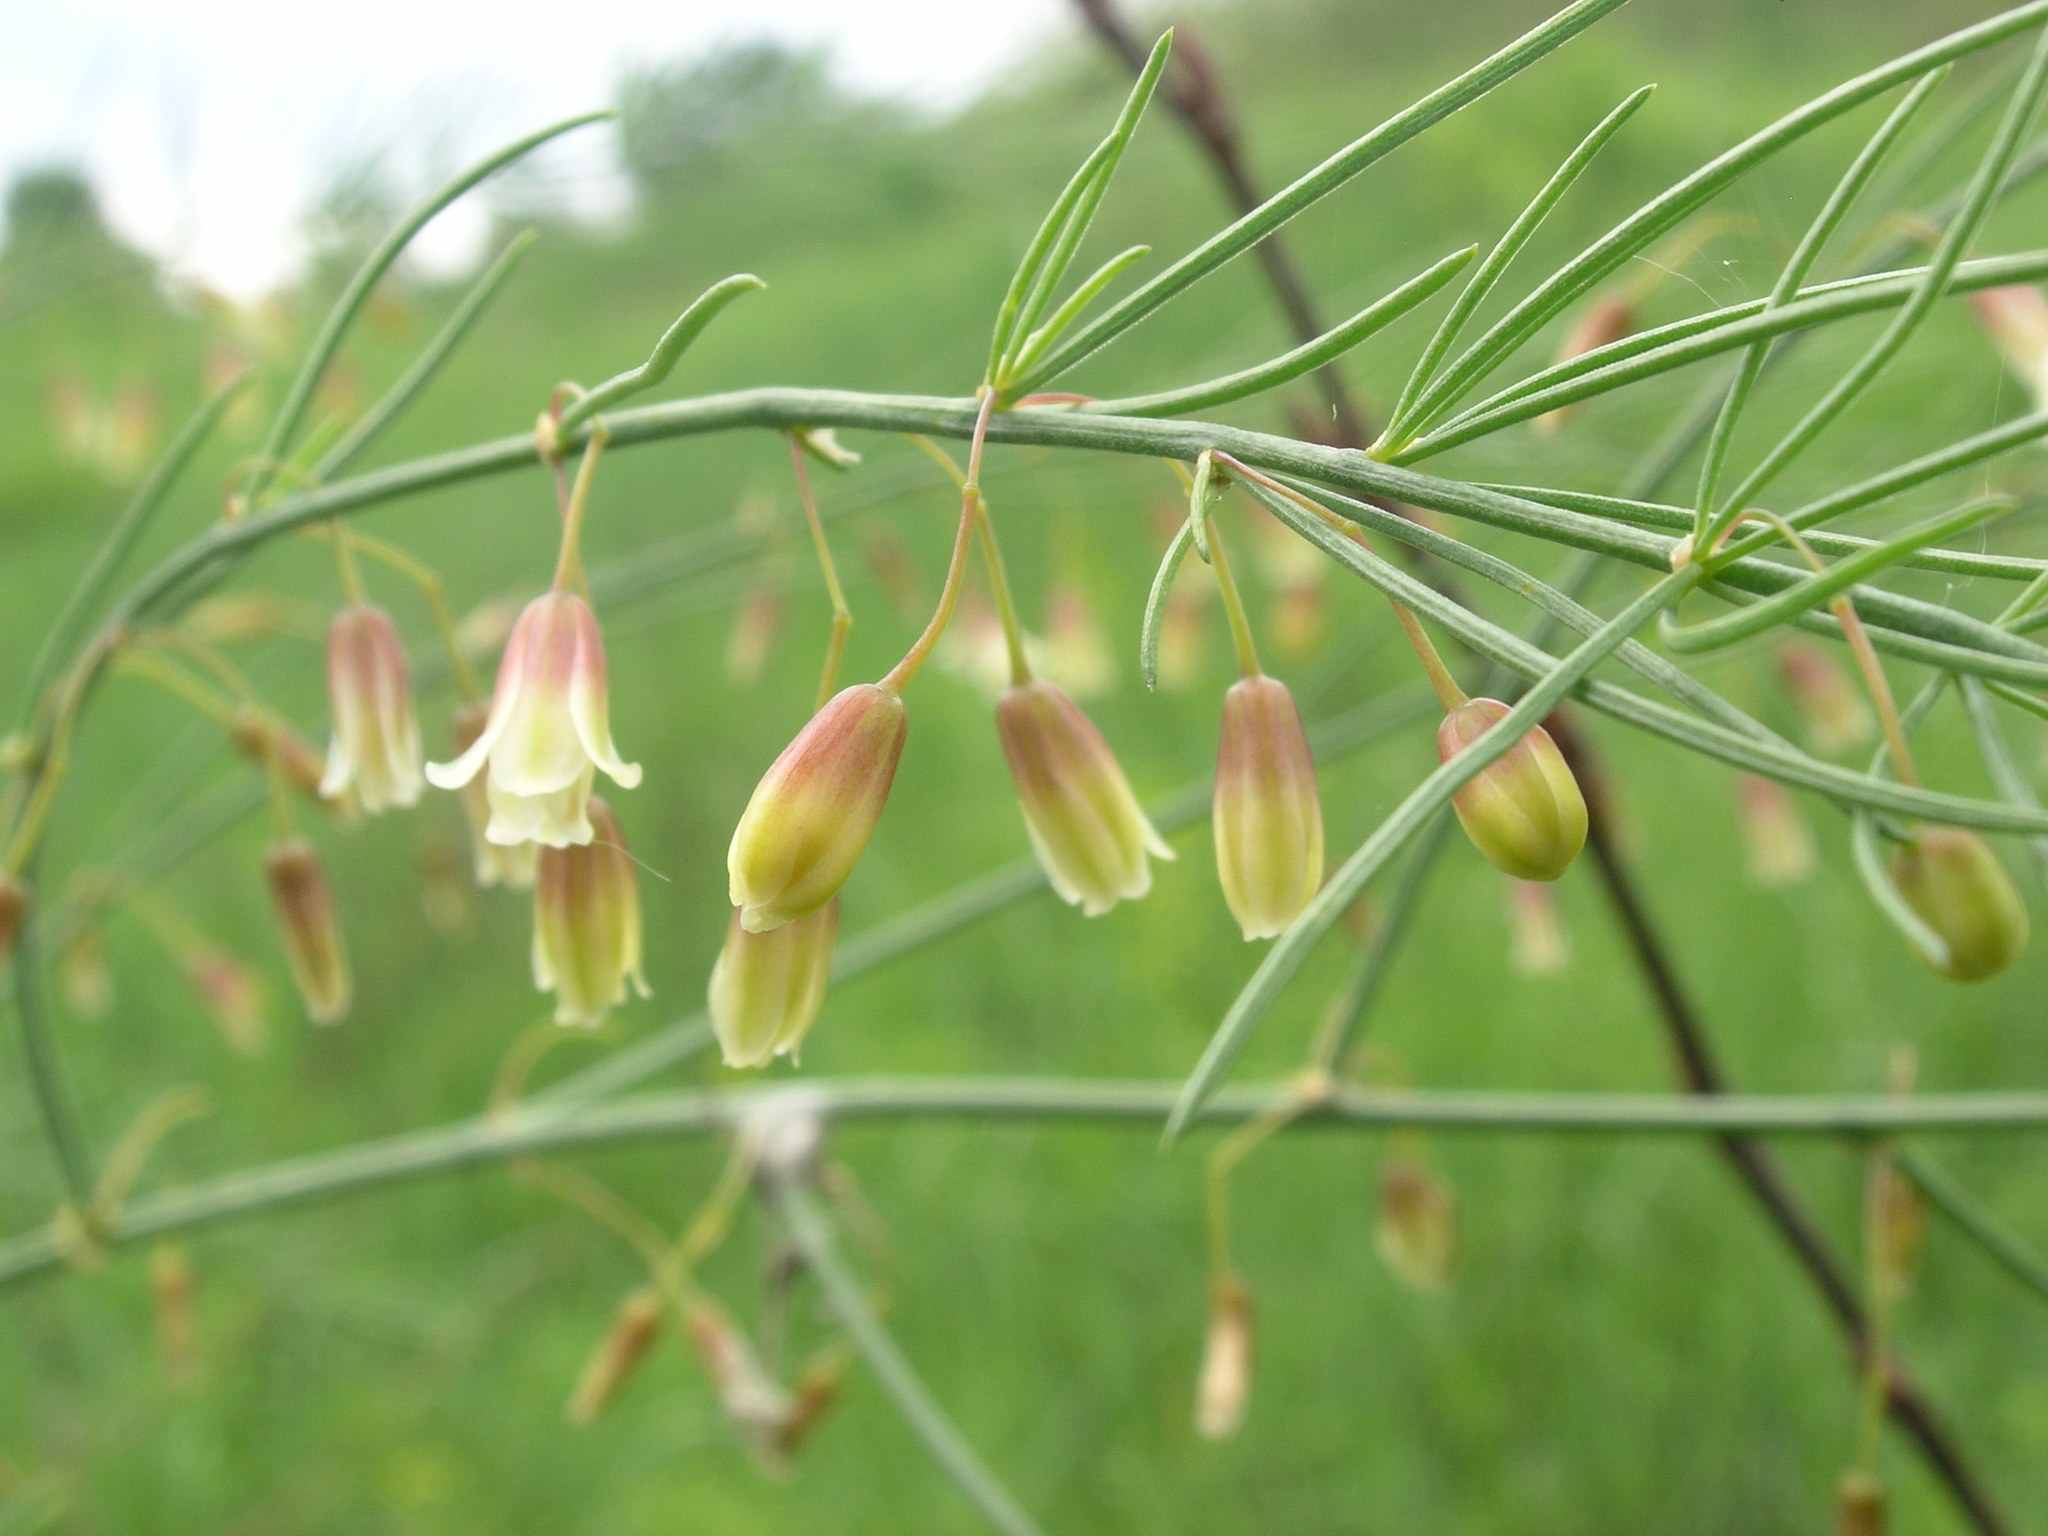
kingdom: Plantae
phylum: Tracheophyta
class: Liliopsida
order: Asparagales
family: Asparagaceae
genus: Asparagus
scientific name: Asparagus officinalis
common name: Garden asparagus
